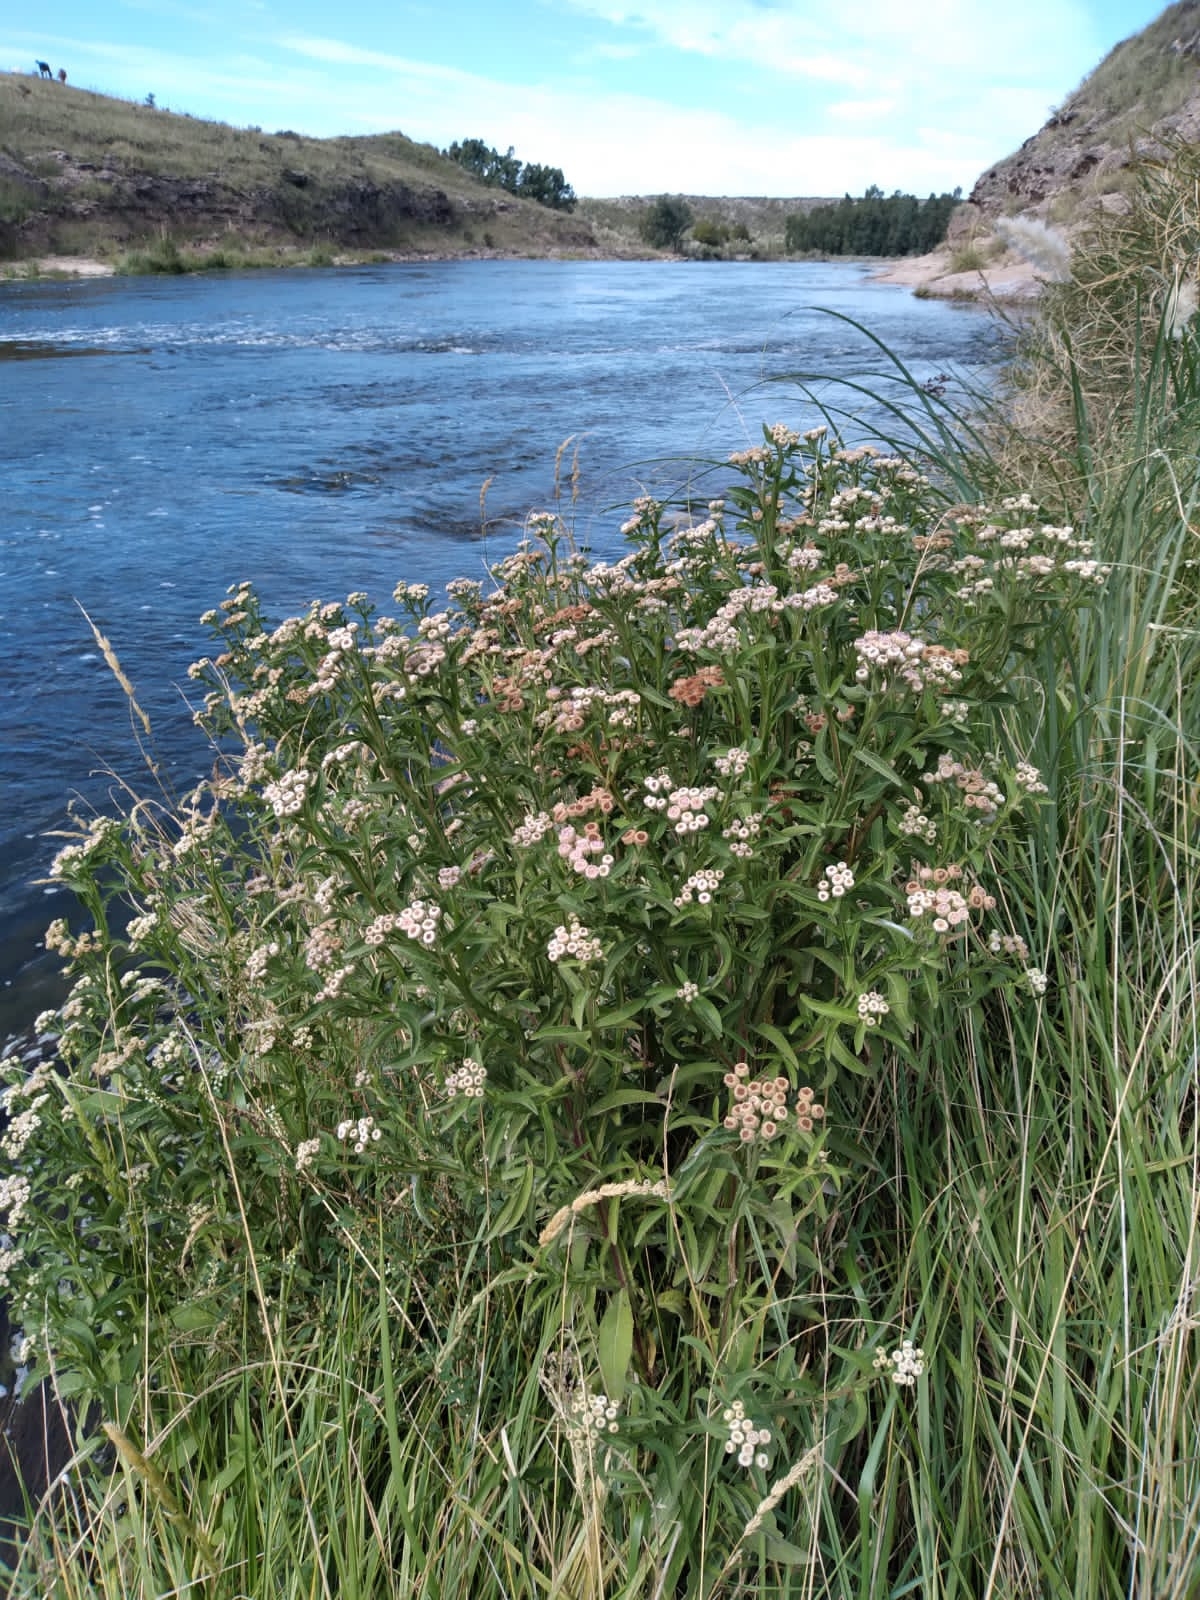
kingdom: Plantae
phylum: Tracheophyta
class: Magnoliopsida
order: Asterales
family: Asteraceae
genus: Pluchea
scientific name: Pluchea sagittalis
